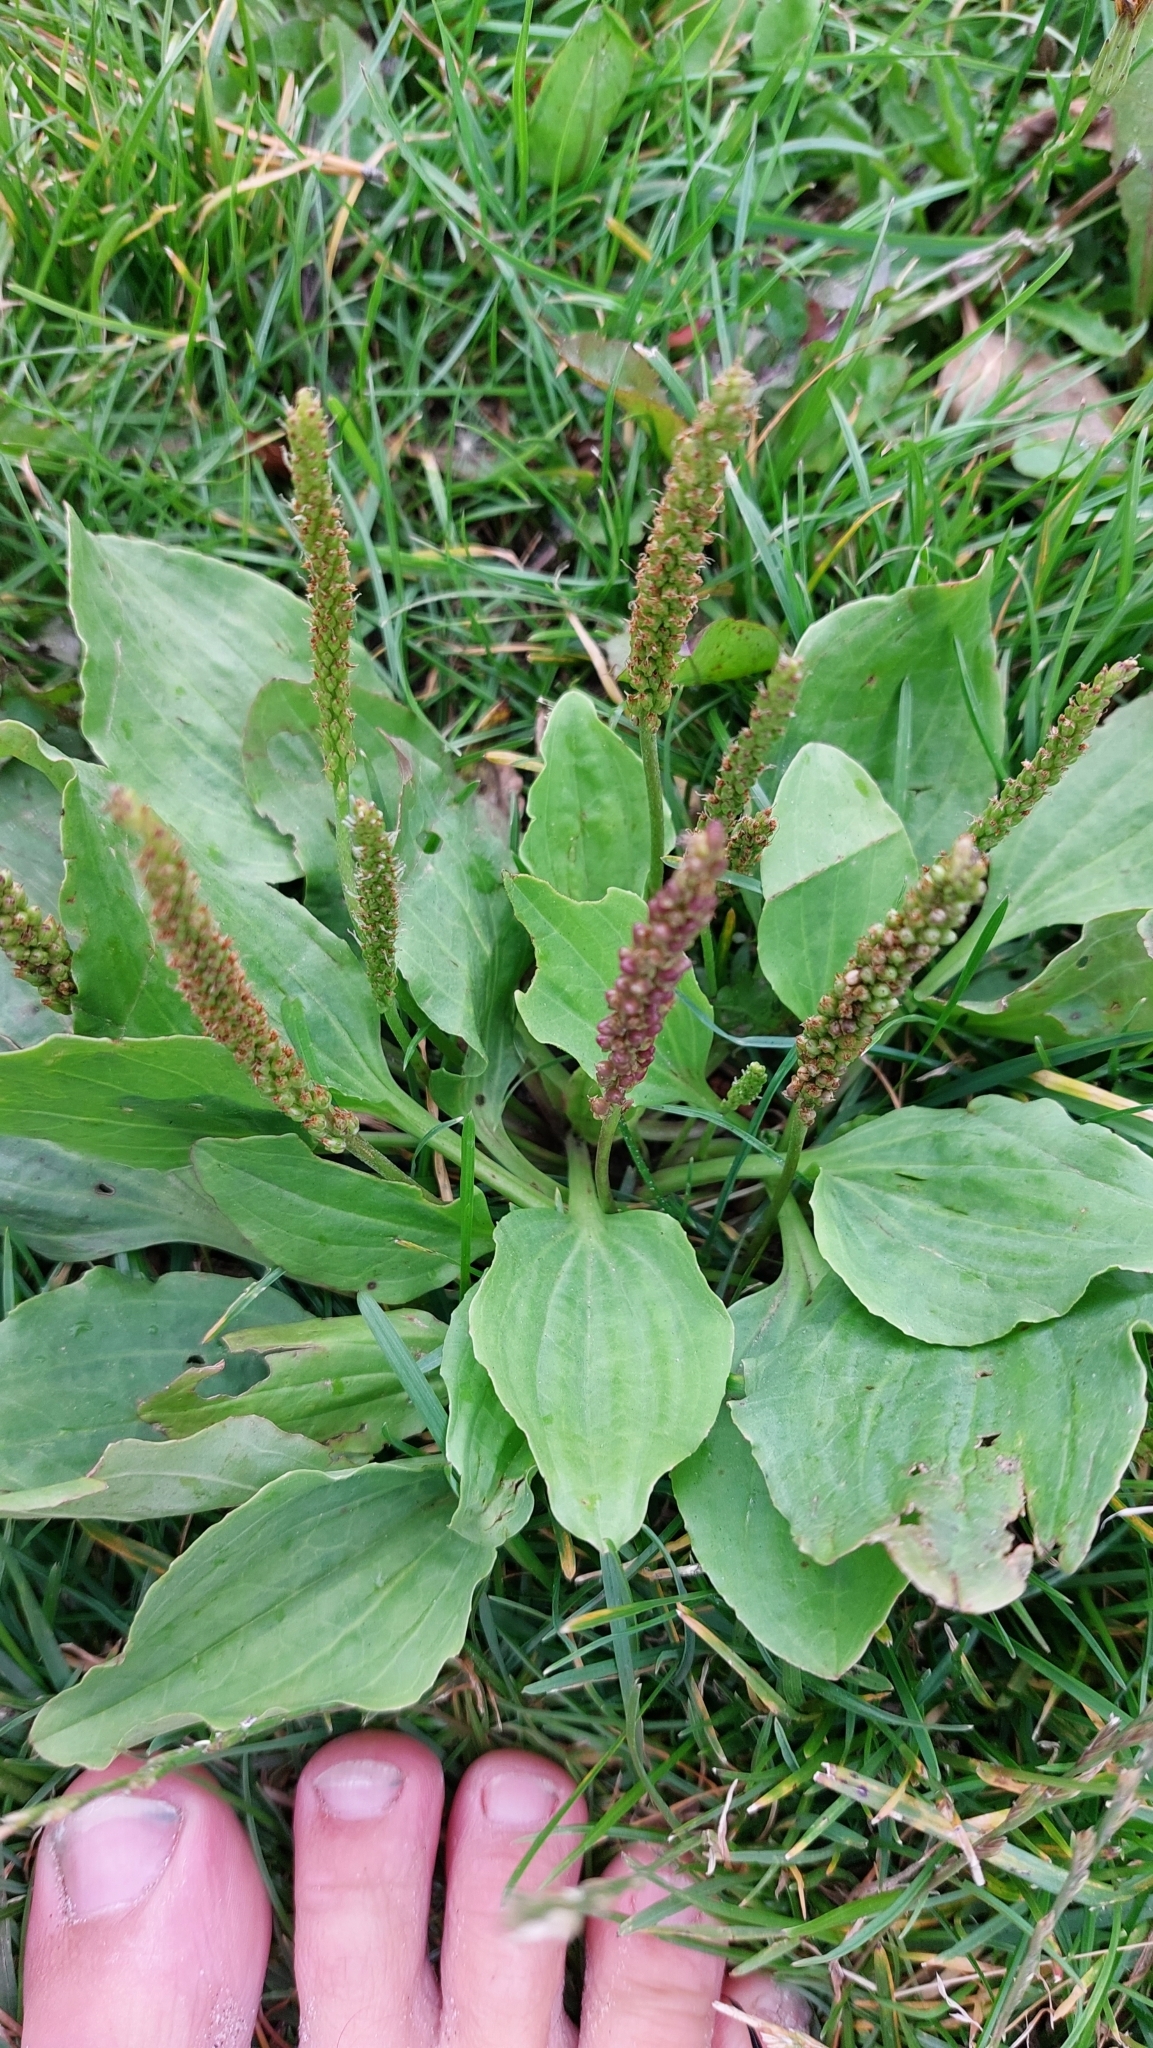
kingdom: Plantae
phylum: Tracheophyta
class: Magnoliopsida
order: Lamiales
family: Plantaginaceae
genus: Plantago
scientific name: Plantago major
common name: Common plantain
